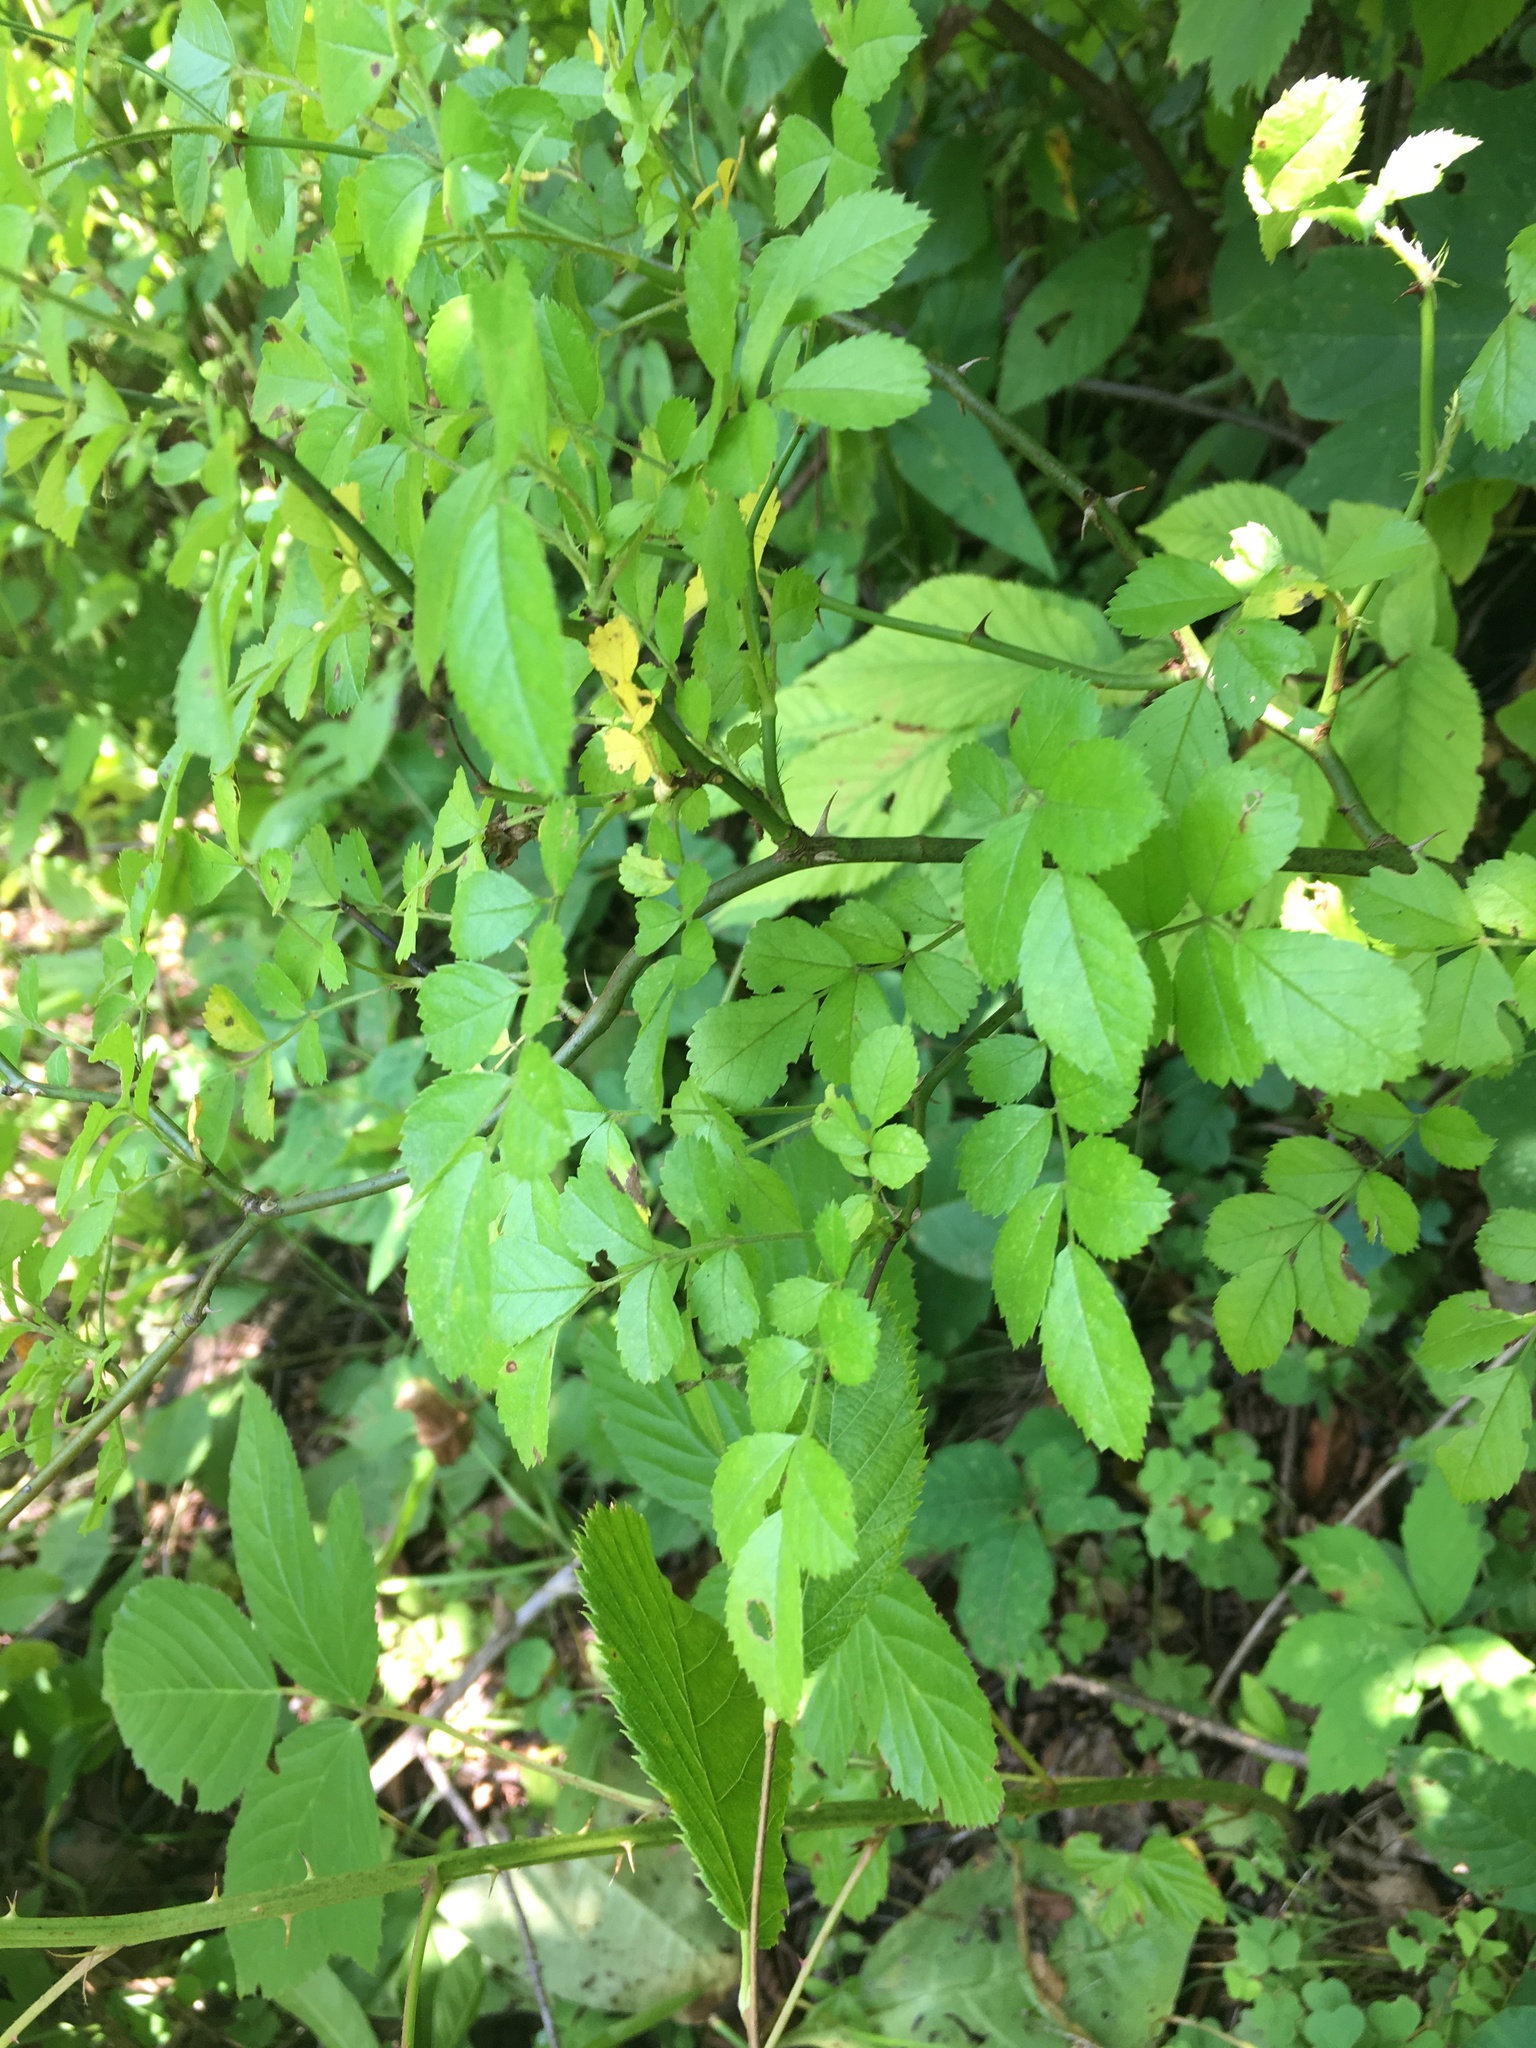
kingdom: Plantae
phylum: Tracheophyta
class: Magnoliopsida
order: Rosales
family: Rosaceae
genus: Rosa
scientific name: Rosa multiflora
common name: Multiflora rose
